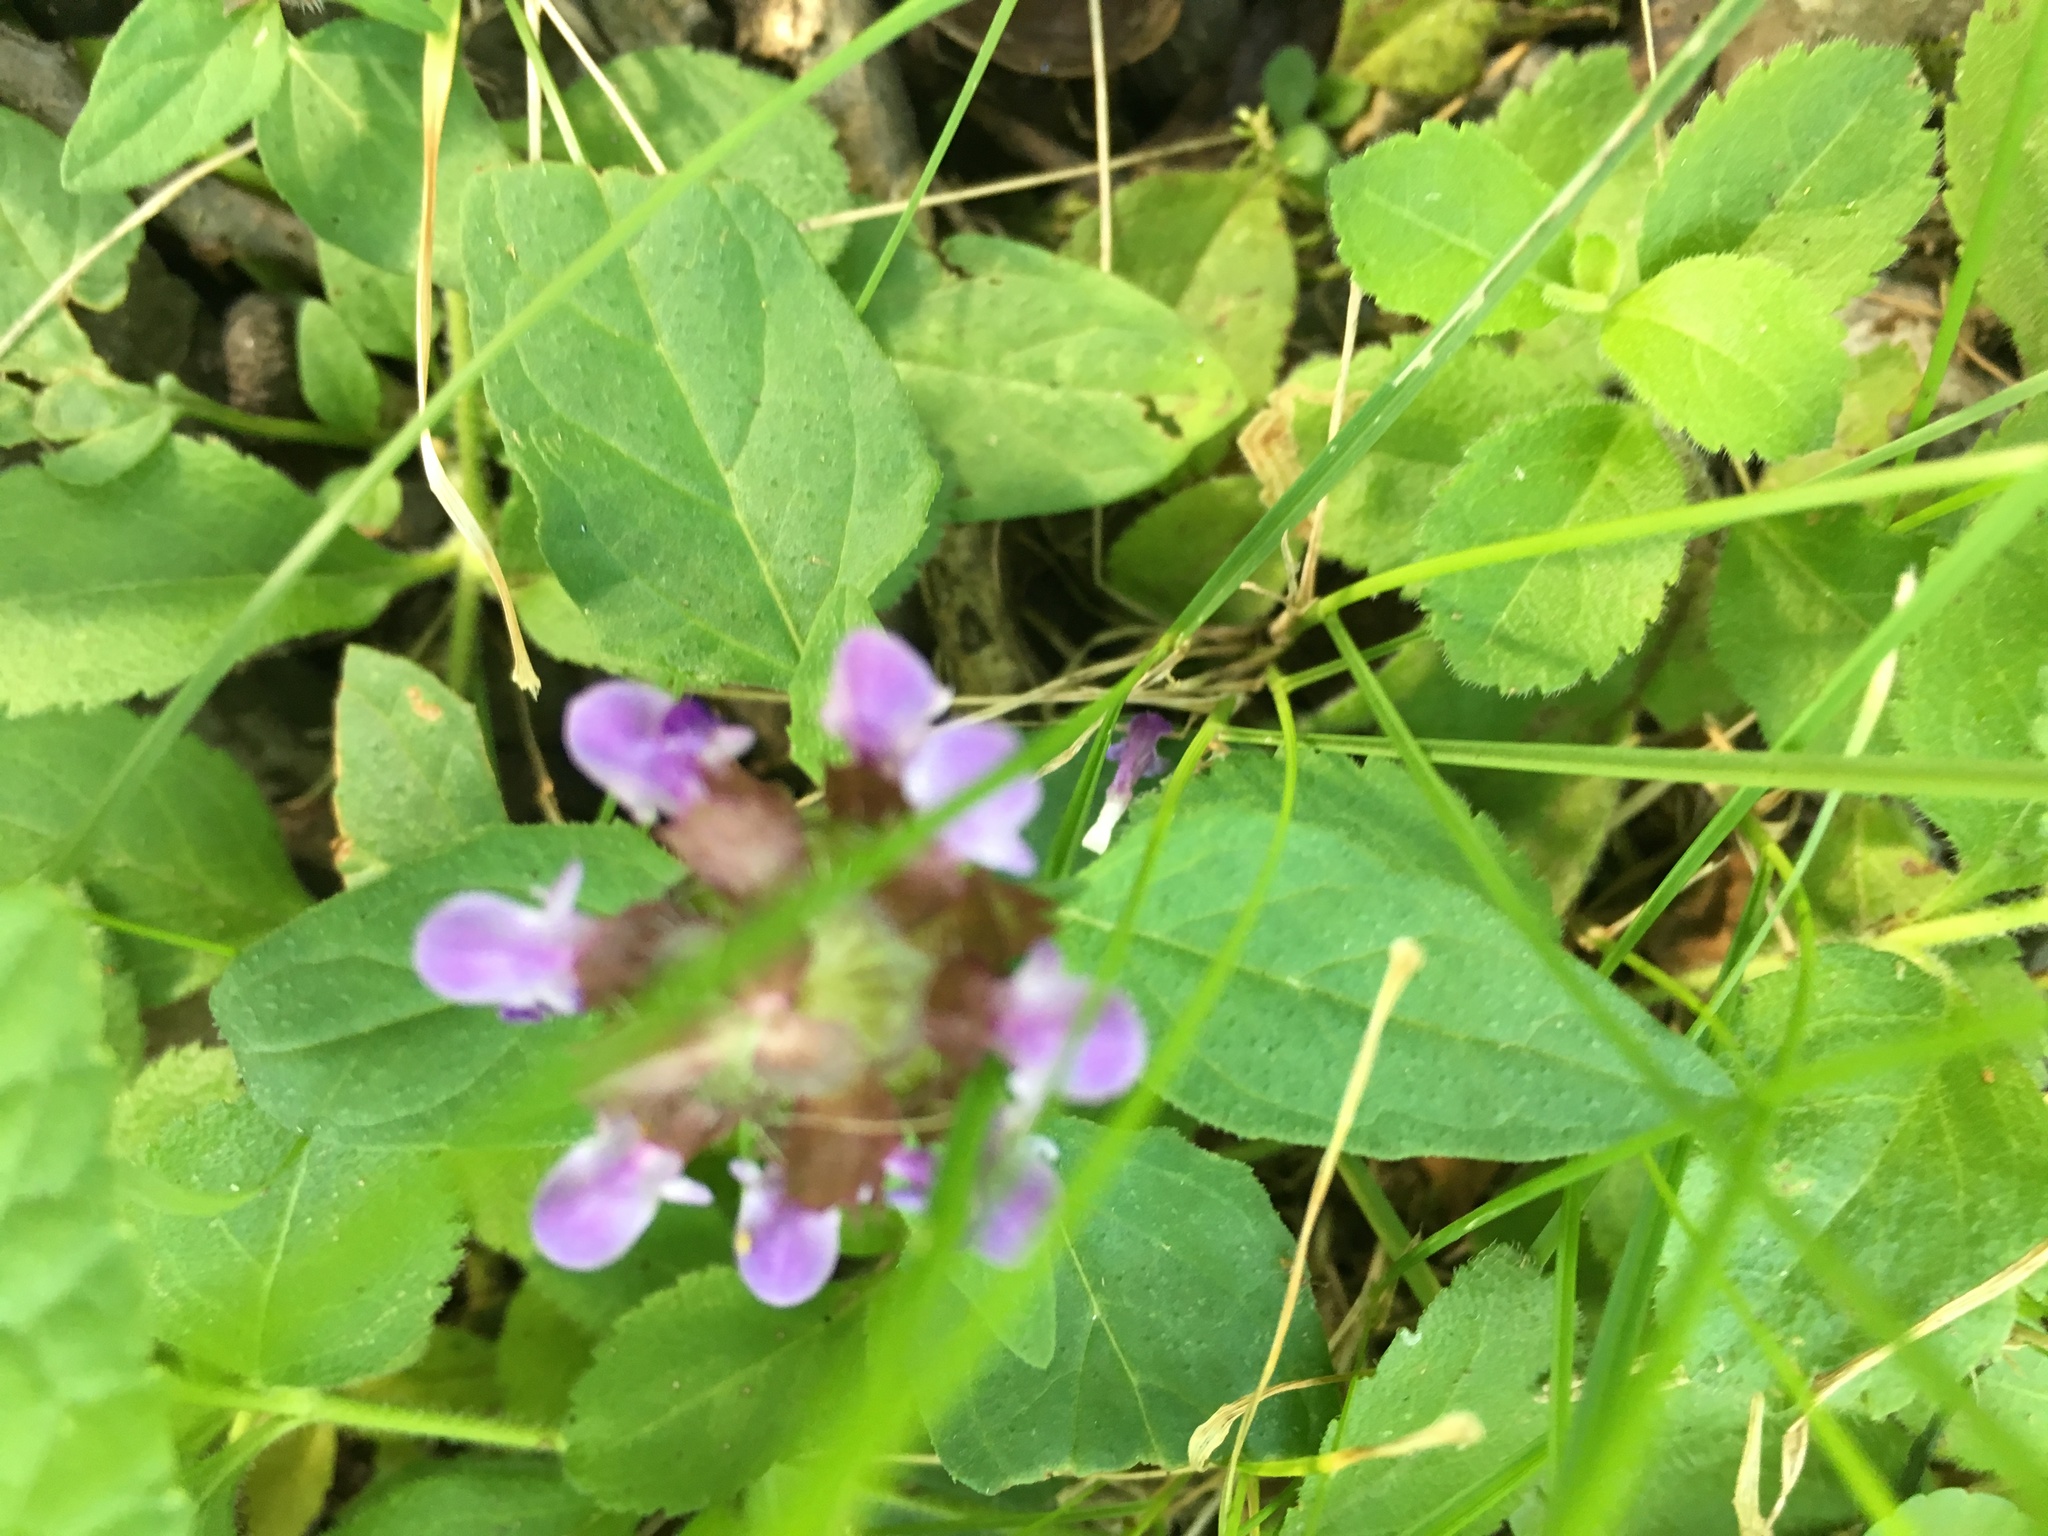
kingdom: Plantae
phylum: Tracheophyta
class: Magnoliopsida
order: Lamiales
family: Lamiaceae
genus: Prunella
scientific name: Prunella vulgaris
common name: Heal-all
